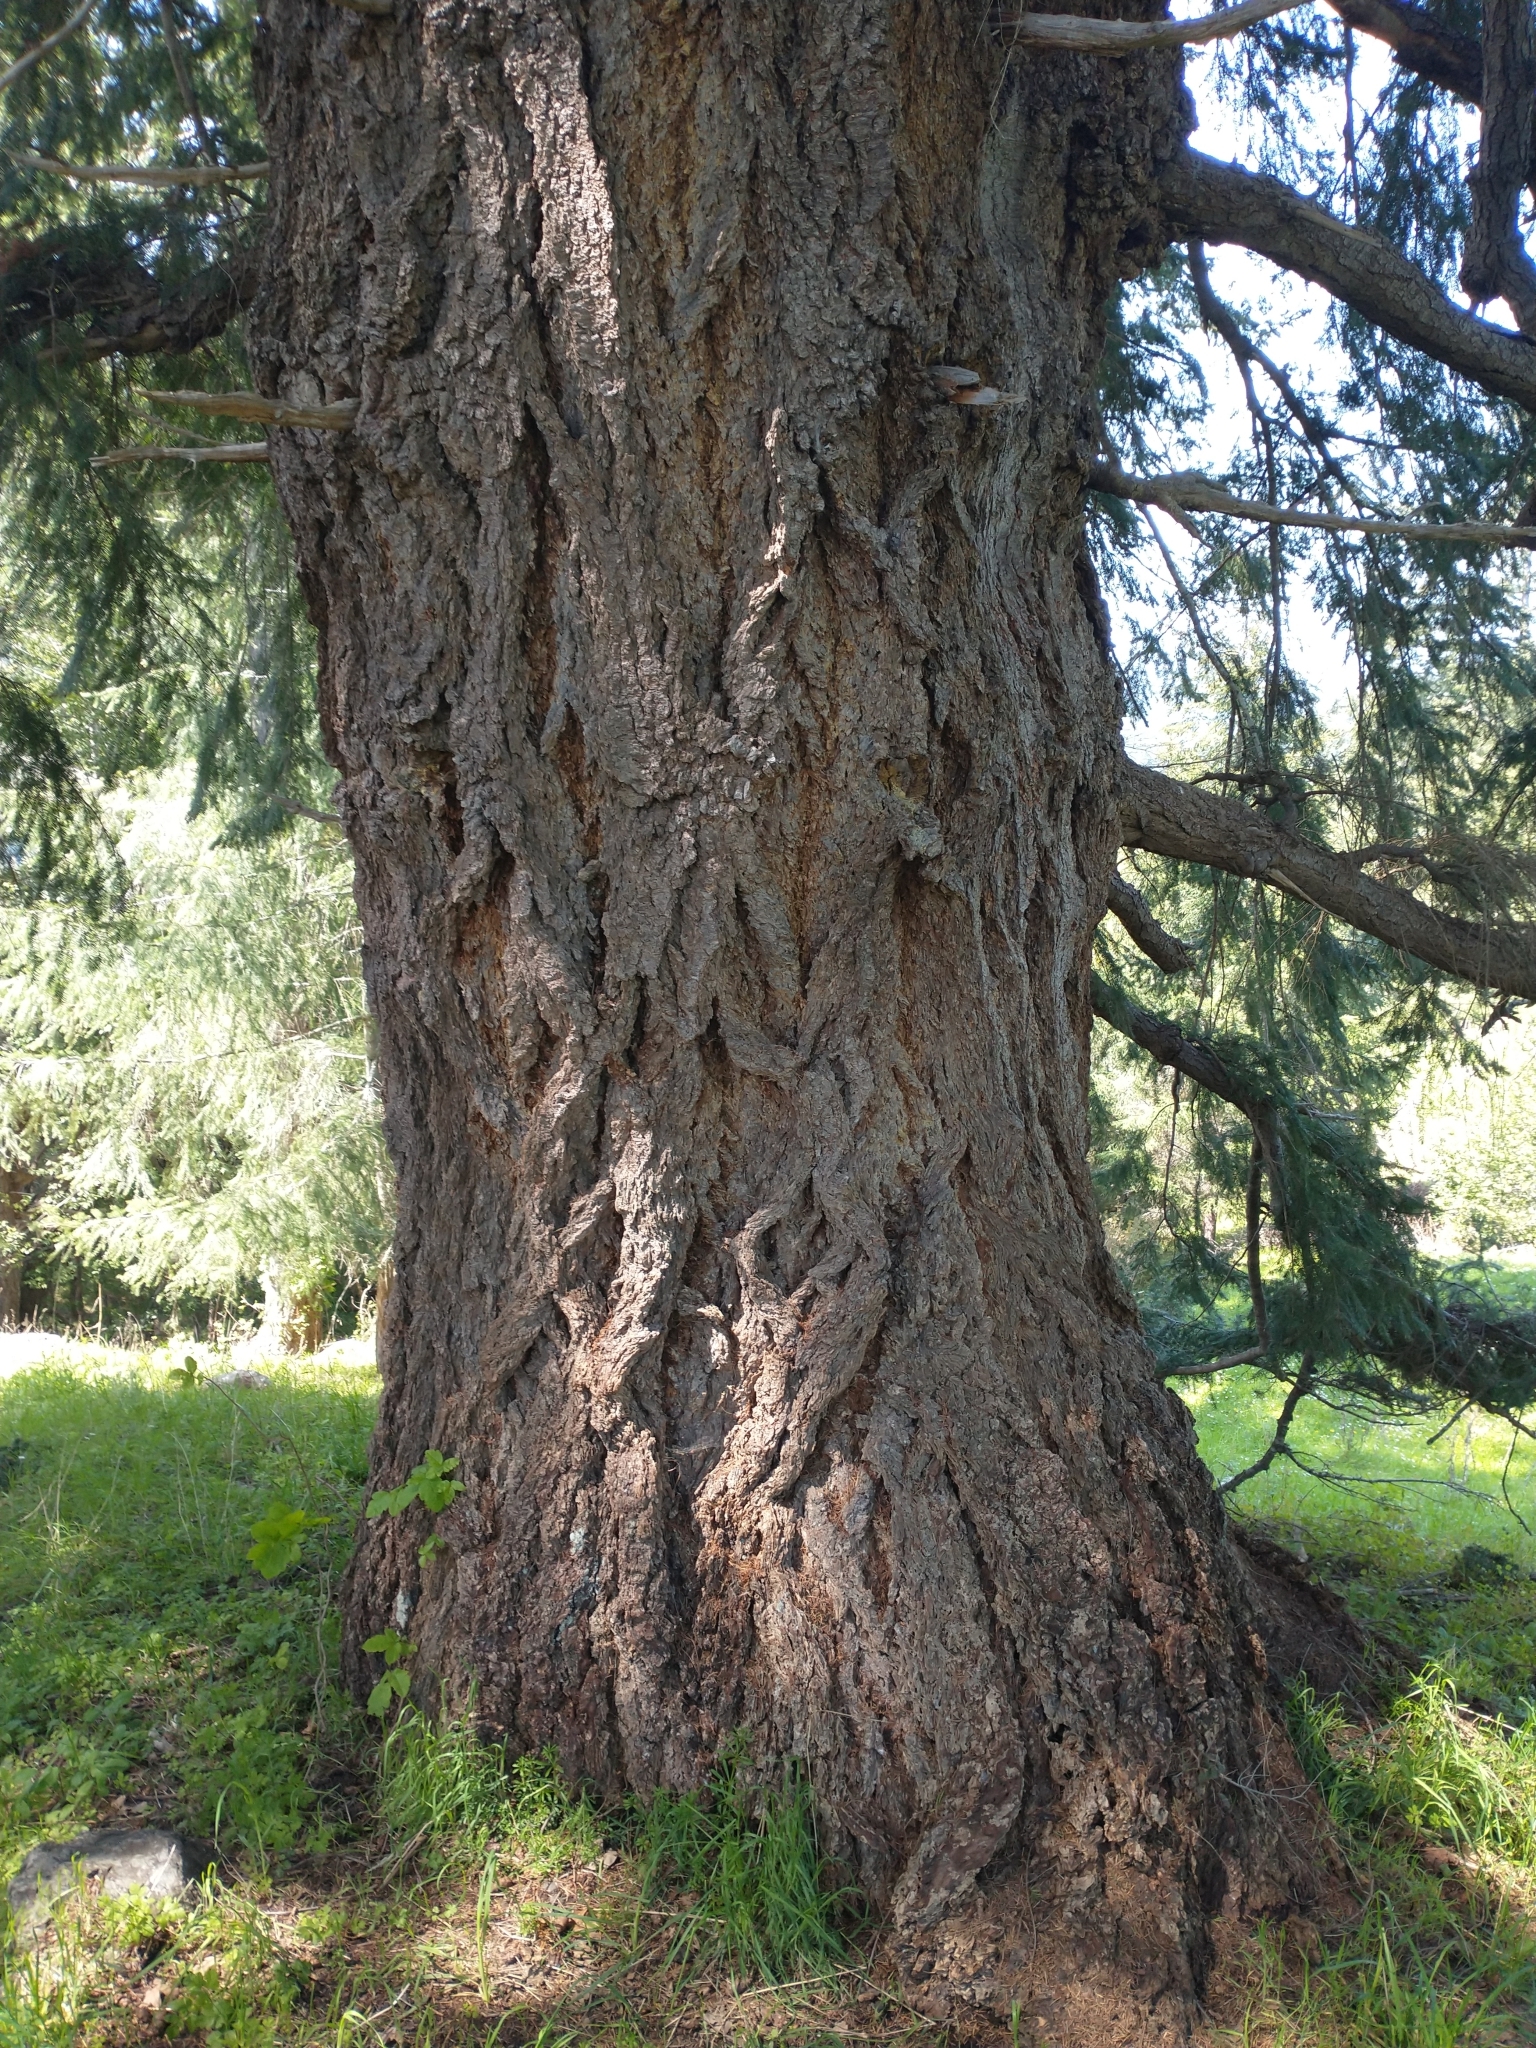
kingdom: Plantae
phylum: Tracheophyta
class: Pinopsida
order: Pinales
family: Pinaceae
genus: Pseudotsuga
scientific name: Pseudotsuga menziesii
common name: Douglas fir
